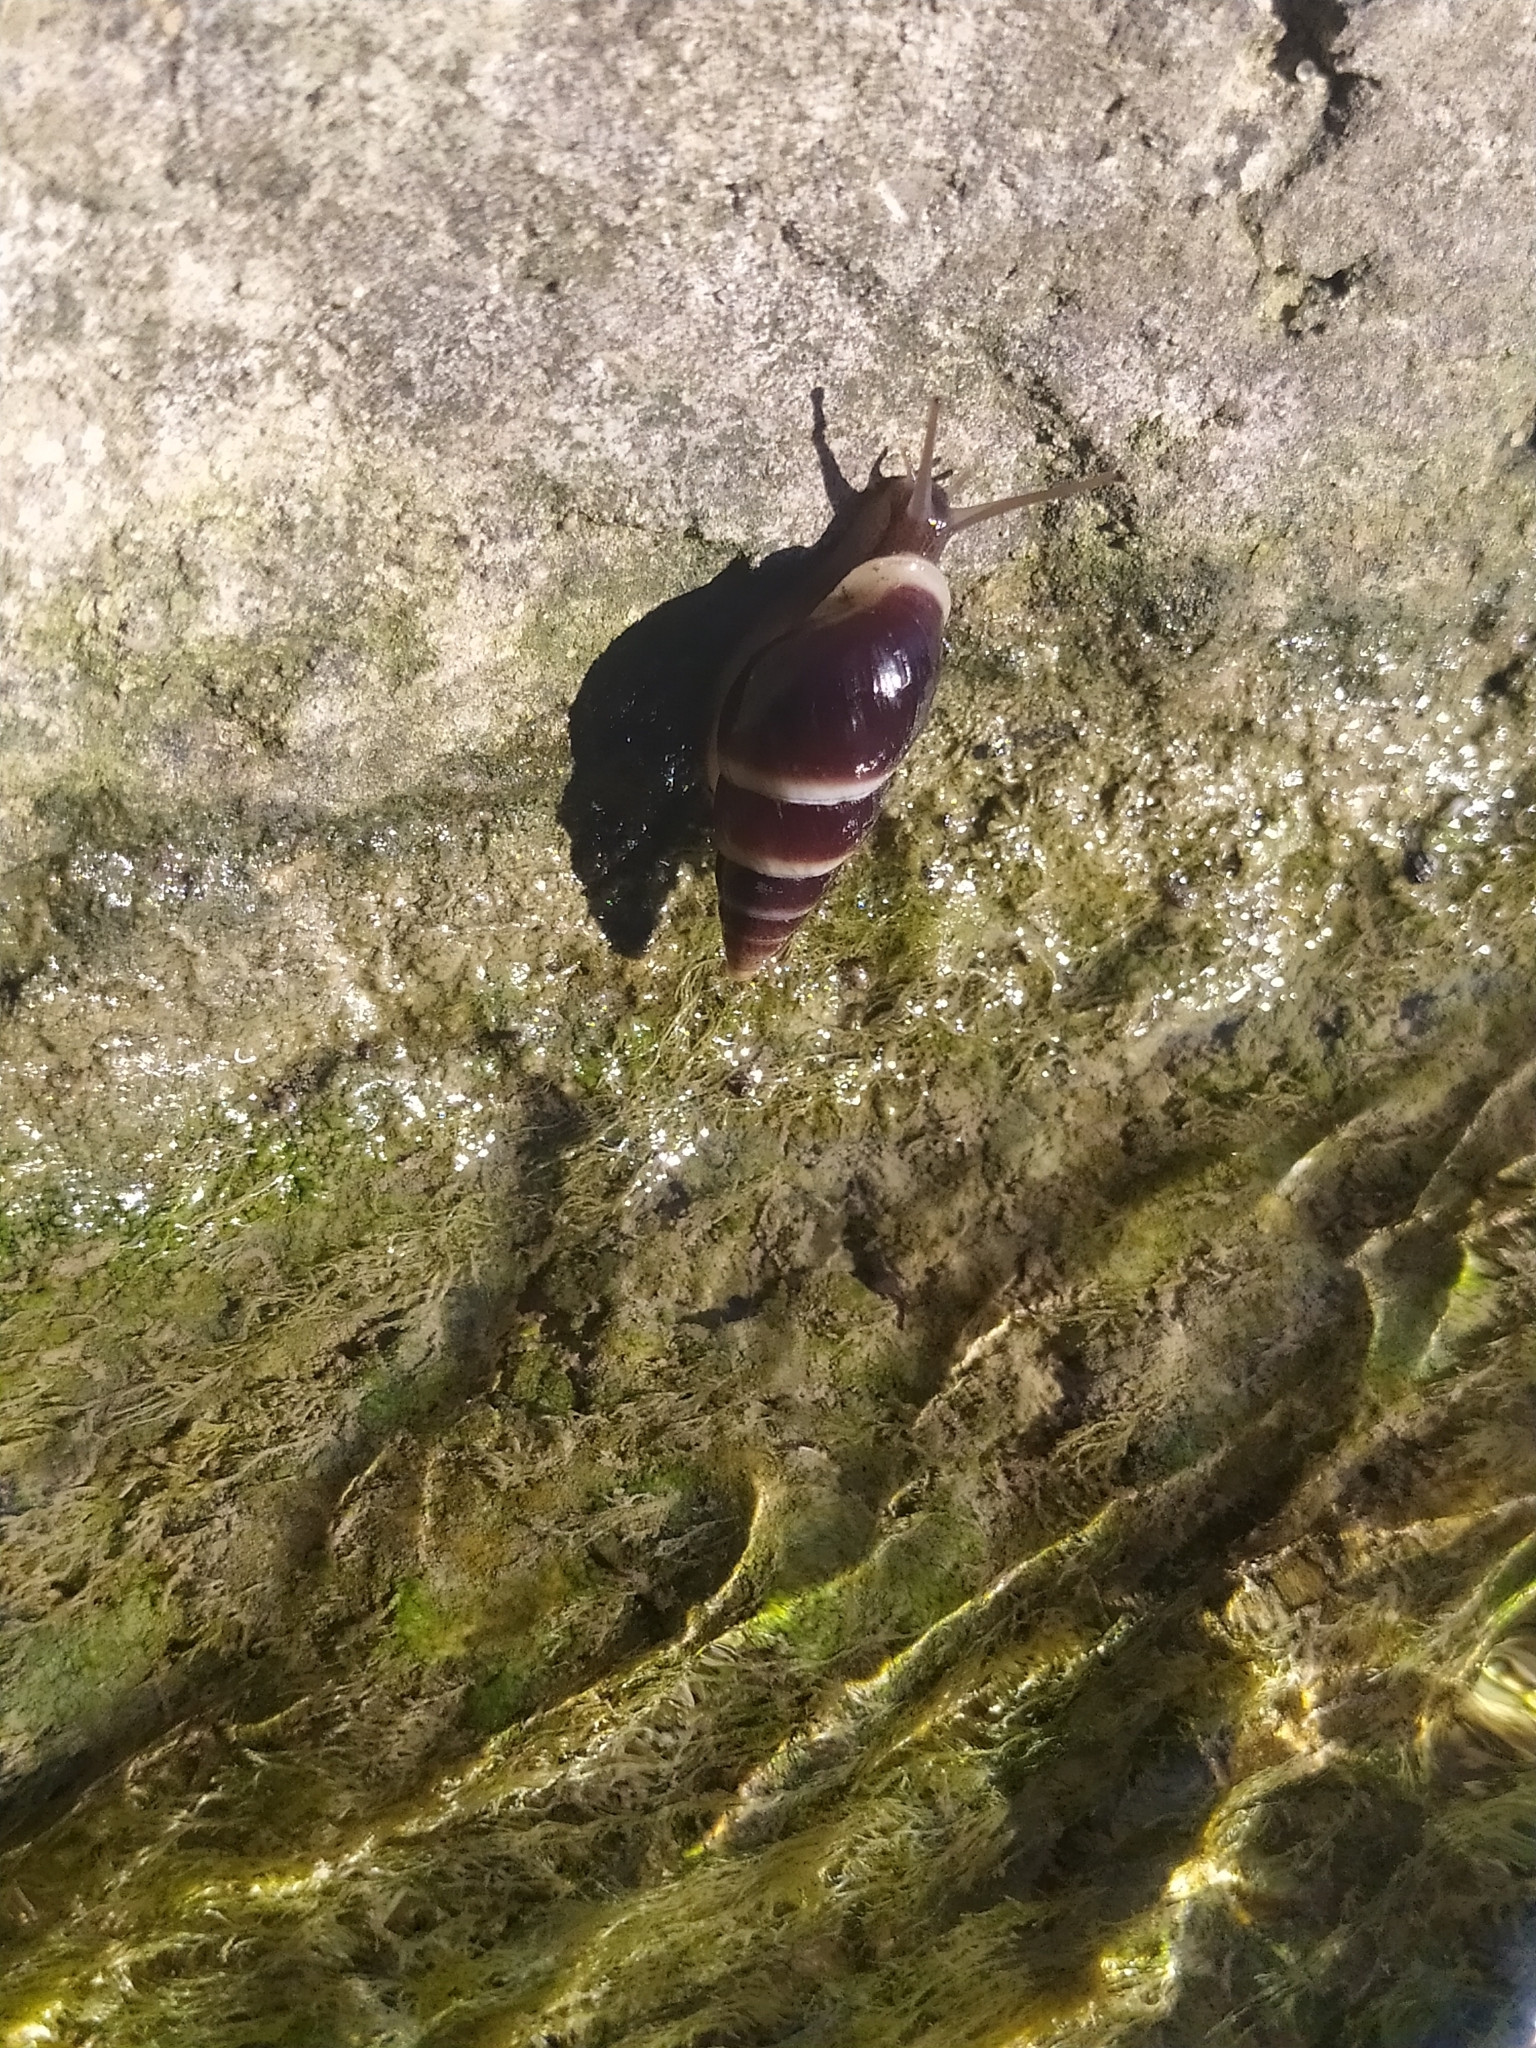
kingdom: Animalia
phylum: Mollusca
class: Gastropoda
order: Stylommatophora
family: Enidae
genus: Caucasicola
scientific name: Caucasicola raddei
